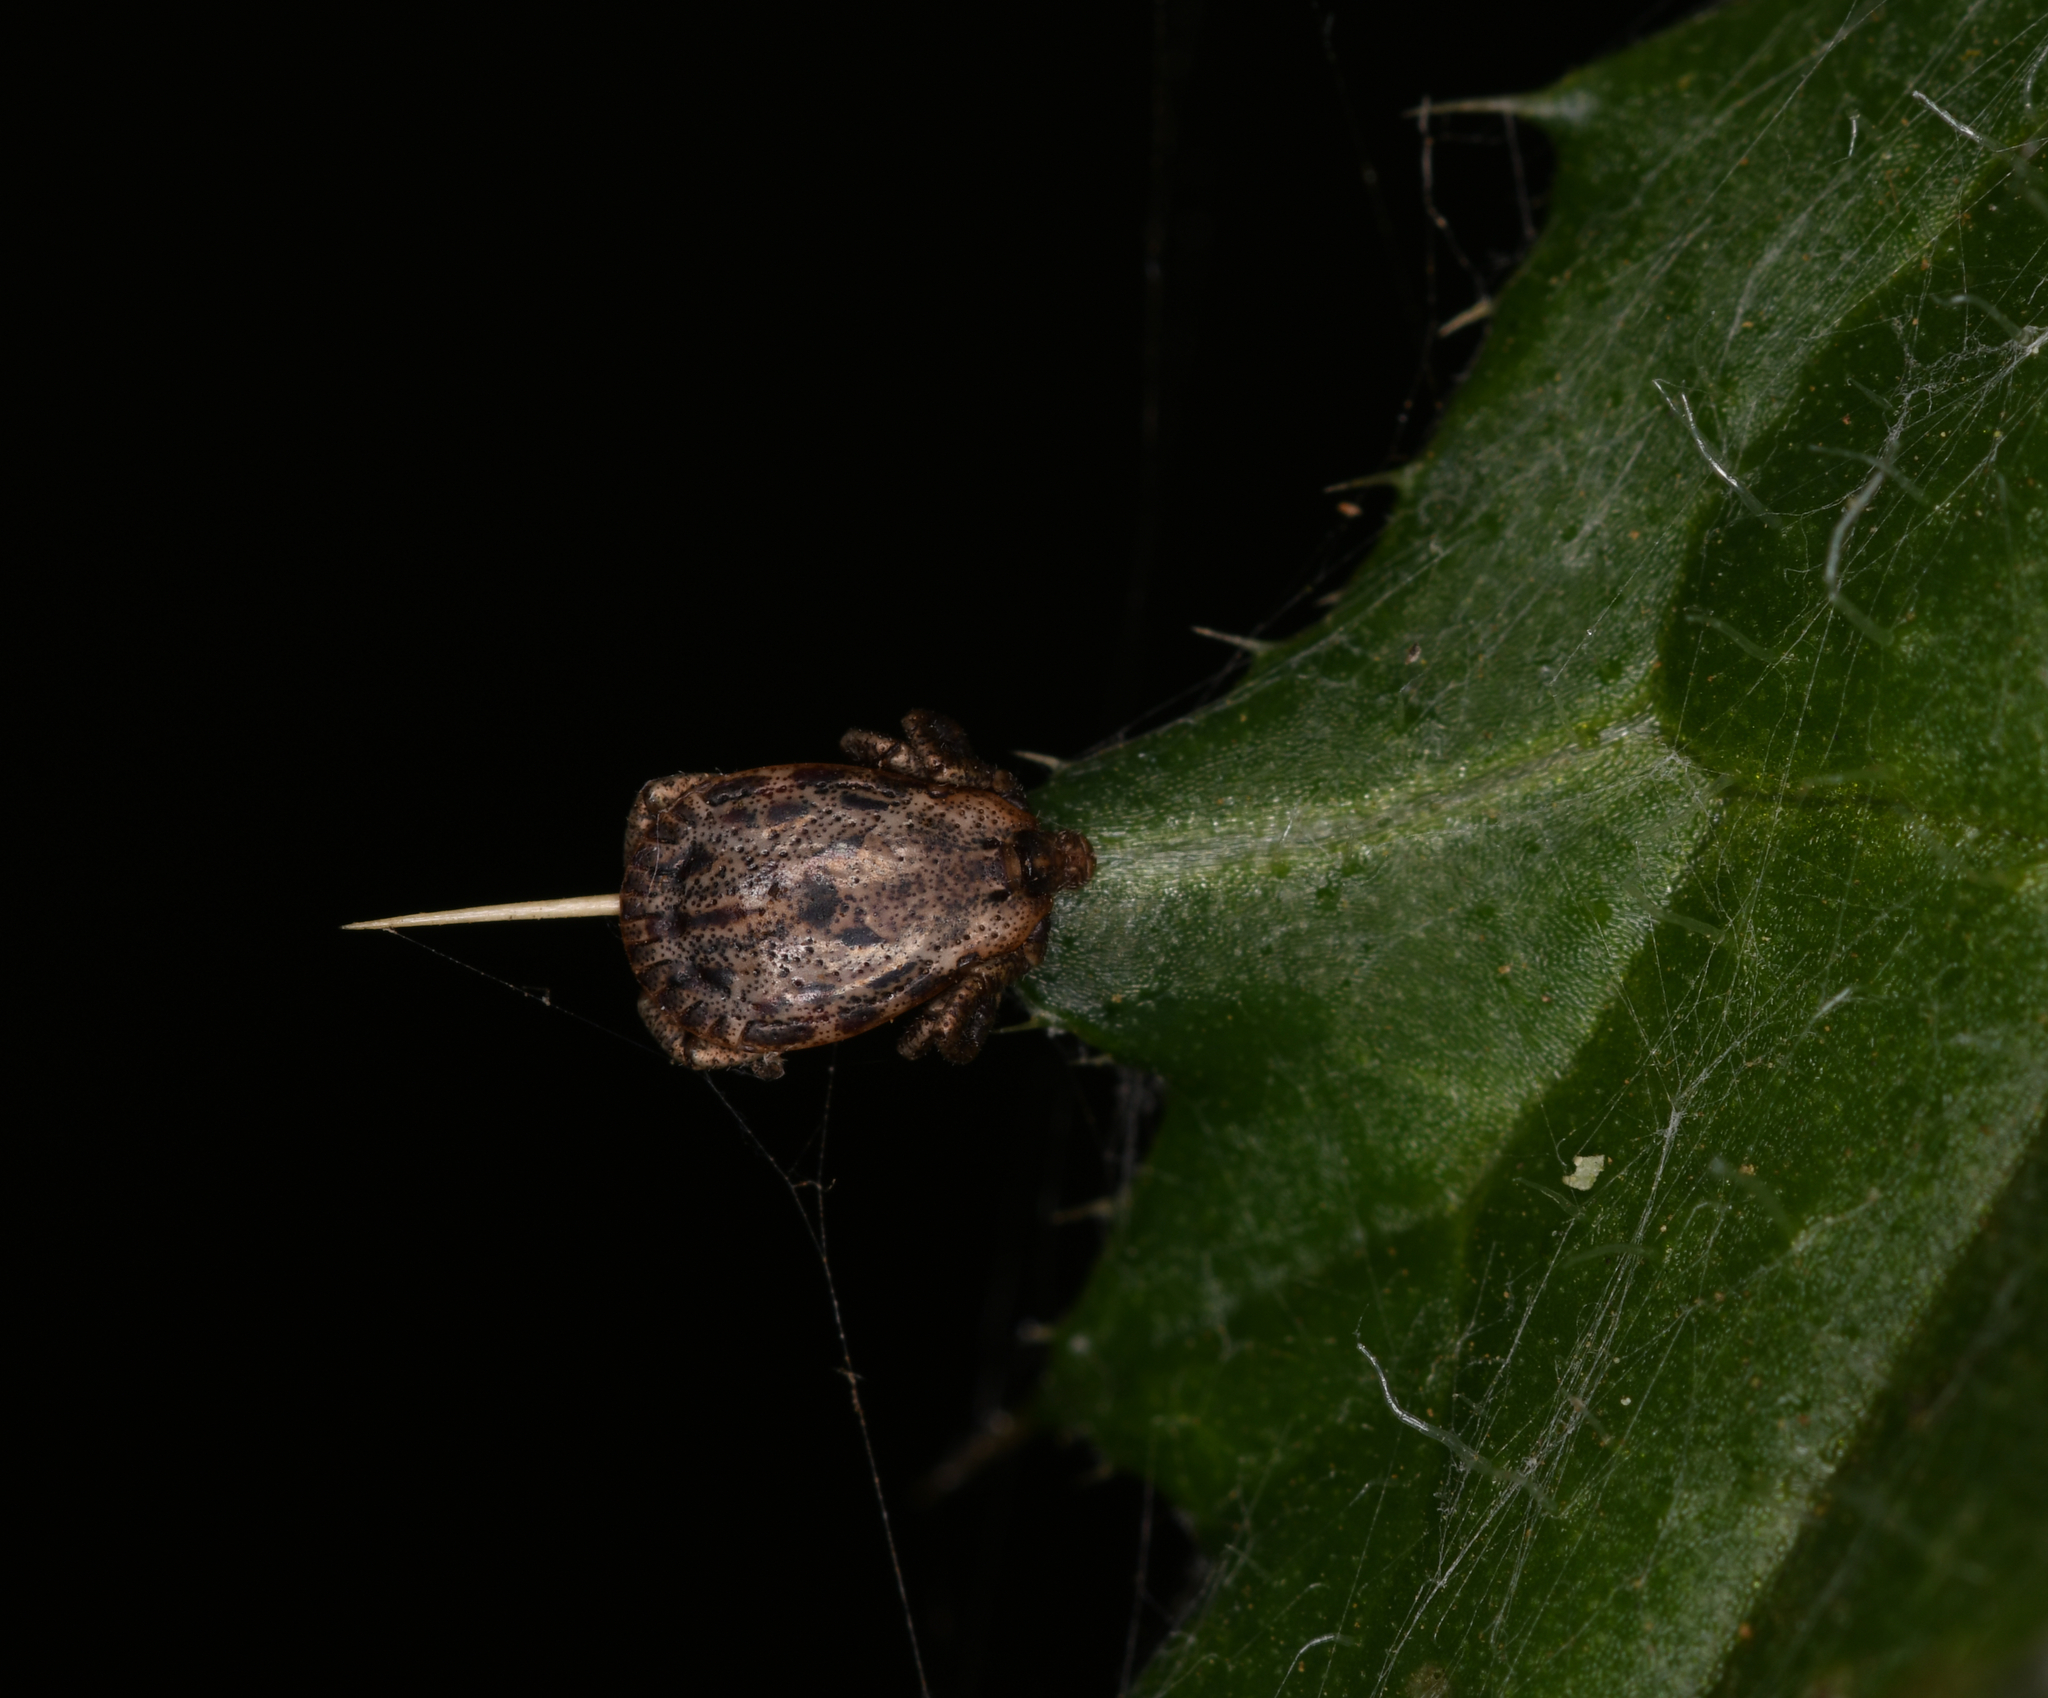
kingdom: Animalia
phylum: Arthropoda
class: Arachnida
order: Ixodida
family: Ixodidae
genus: Dermacentor
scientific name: Dermacentor occidentalis
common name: Net tick
